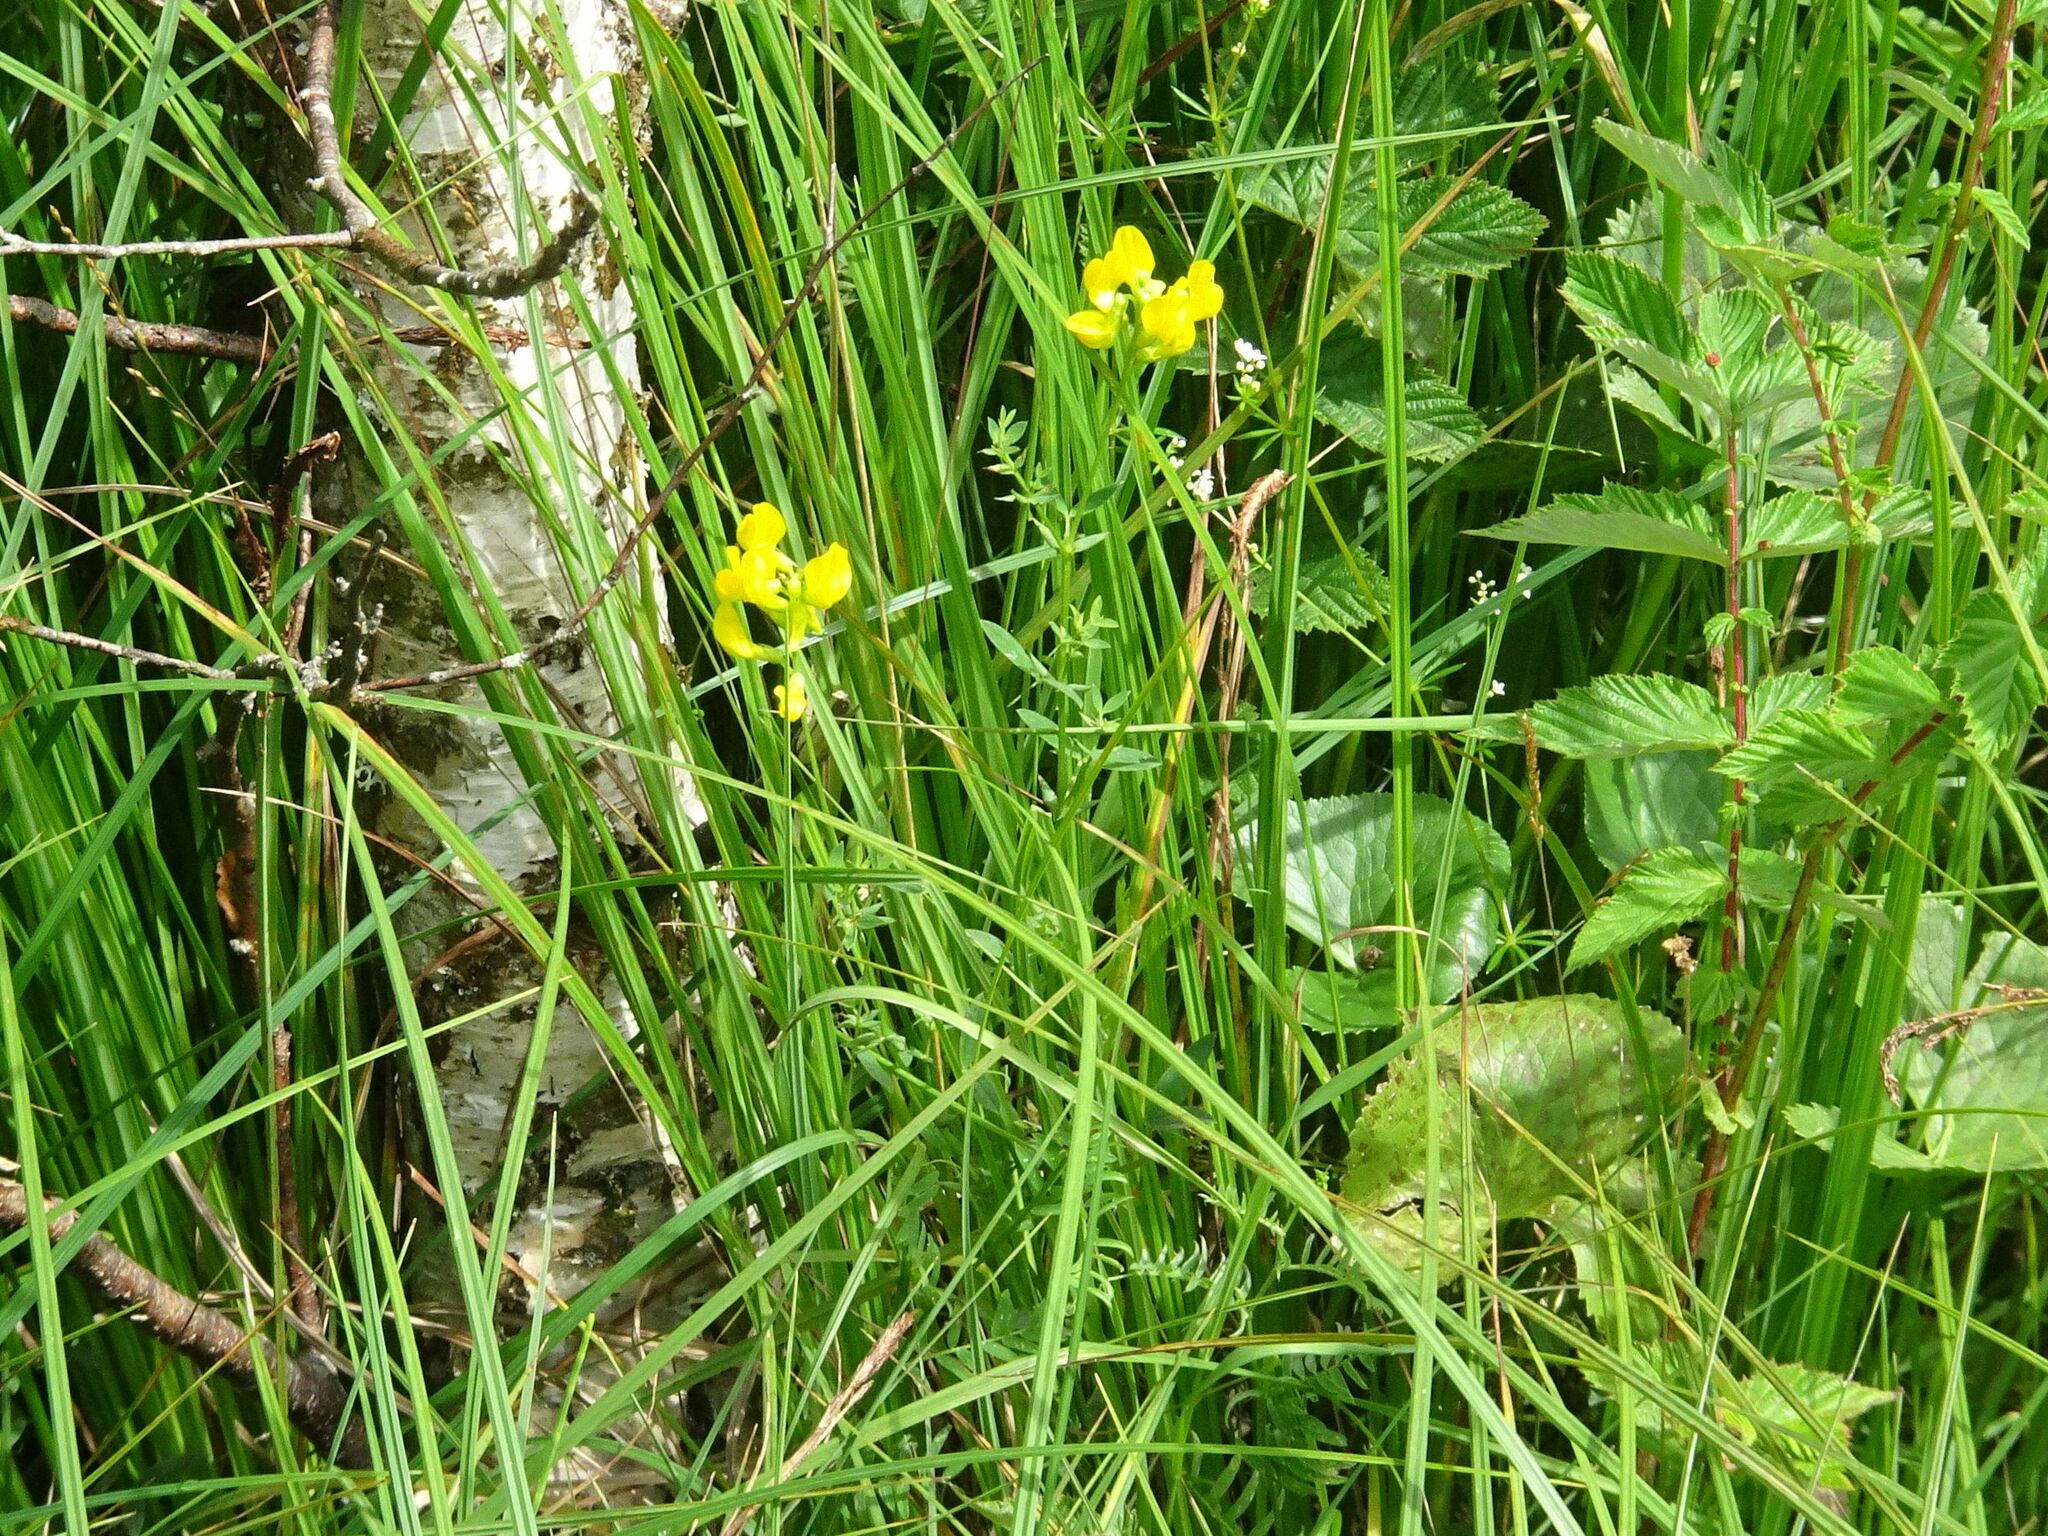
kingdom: Plantae
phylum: Tracheophyta
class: Magnoliopsida
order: Fabales
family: Fabaceae
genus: Lathyrus
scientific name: Lathyrus pratensis
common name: Meadow vetchling
